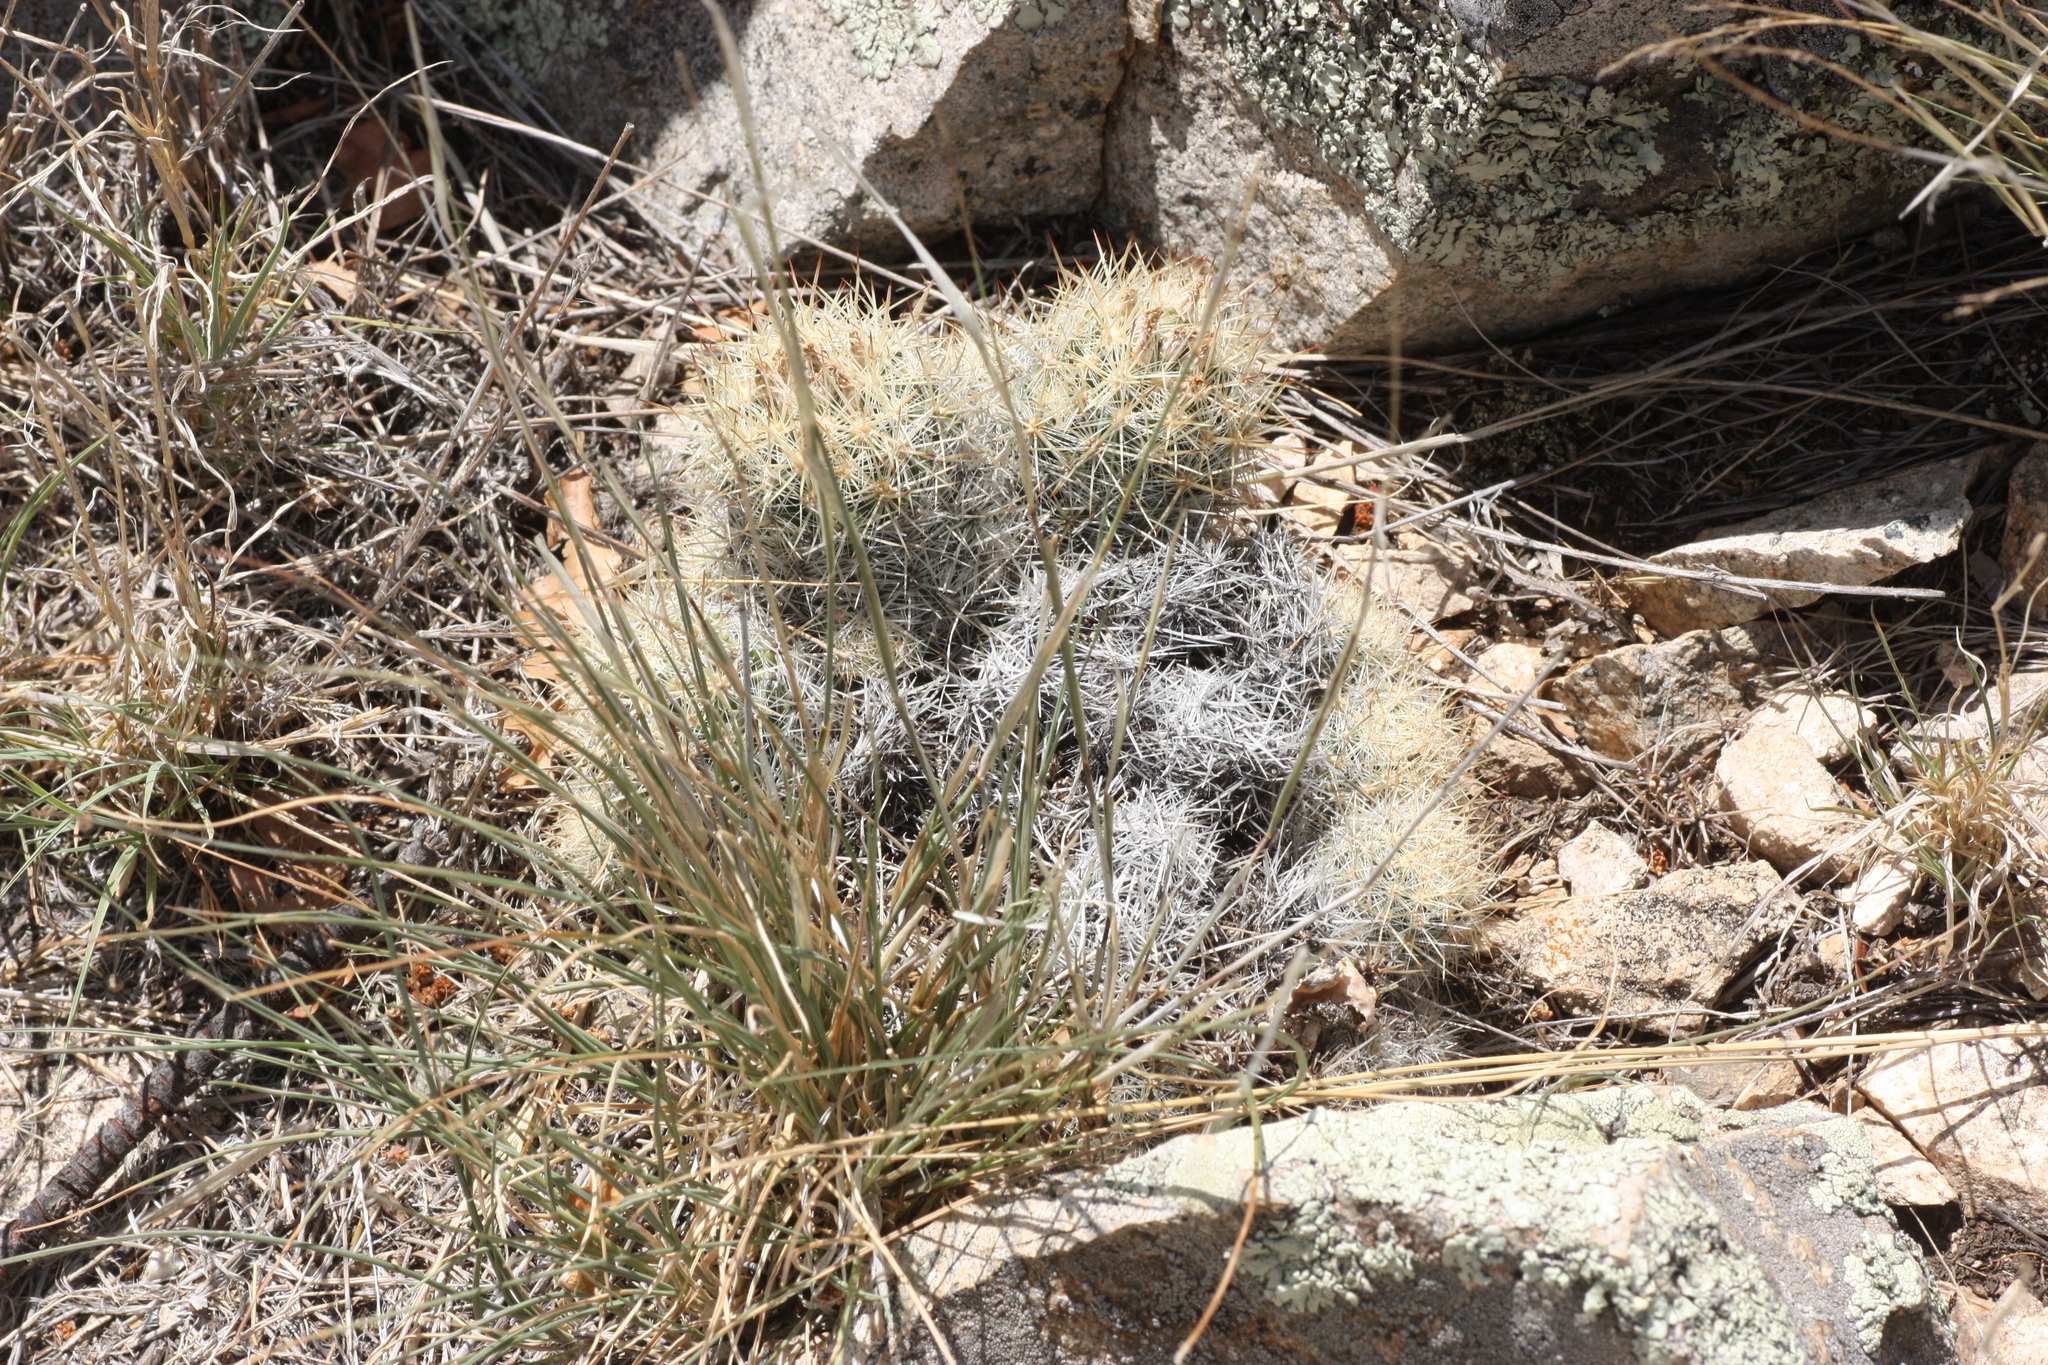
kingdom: Plantae
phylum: Tracheophyta
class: Magnoliopsida
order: Caryophyllales
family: Cactaceae
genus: Pelecyphora
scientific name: Pelecyphora sneedii
